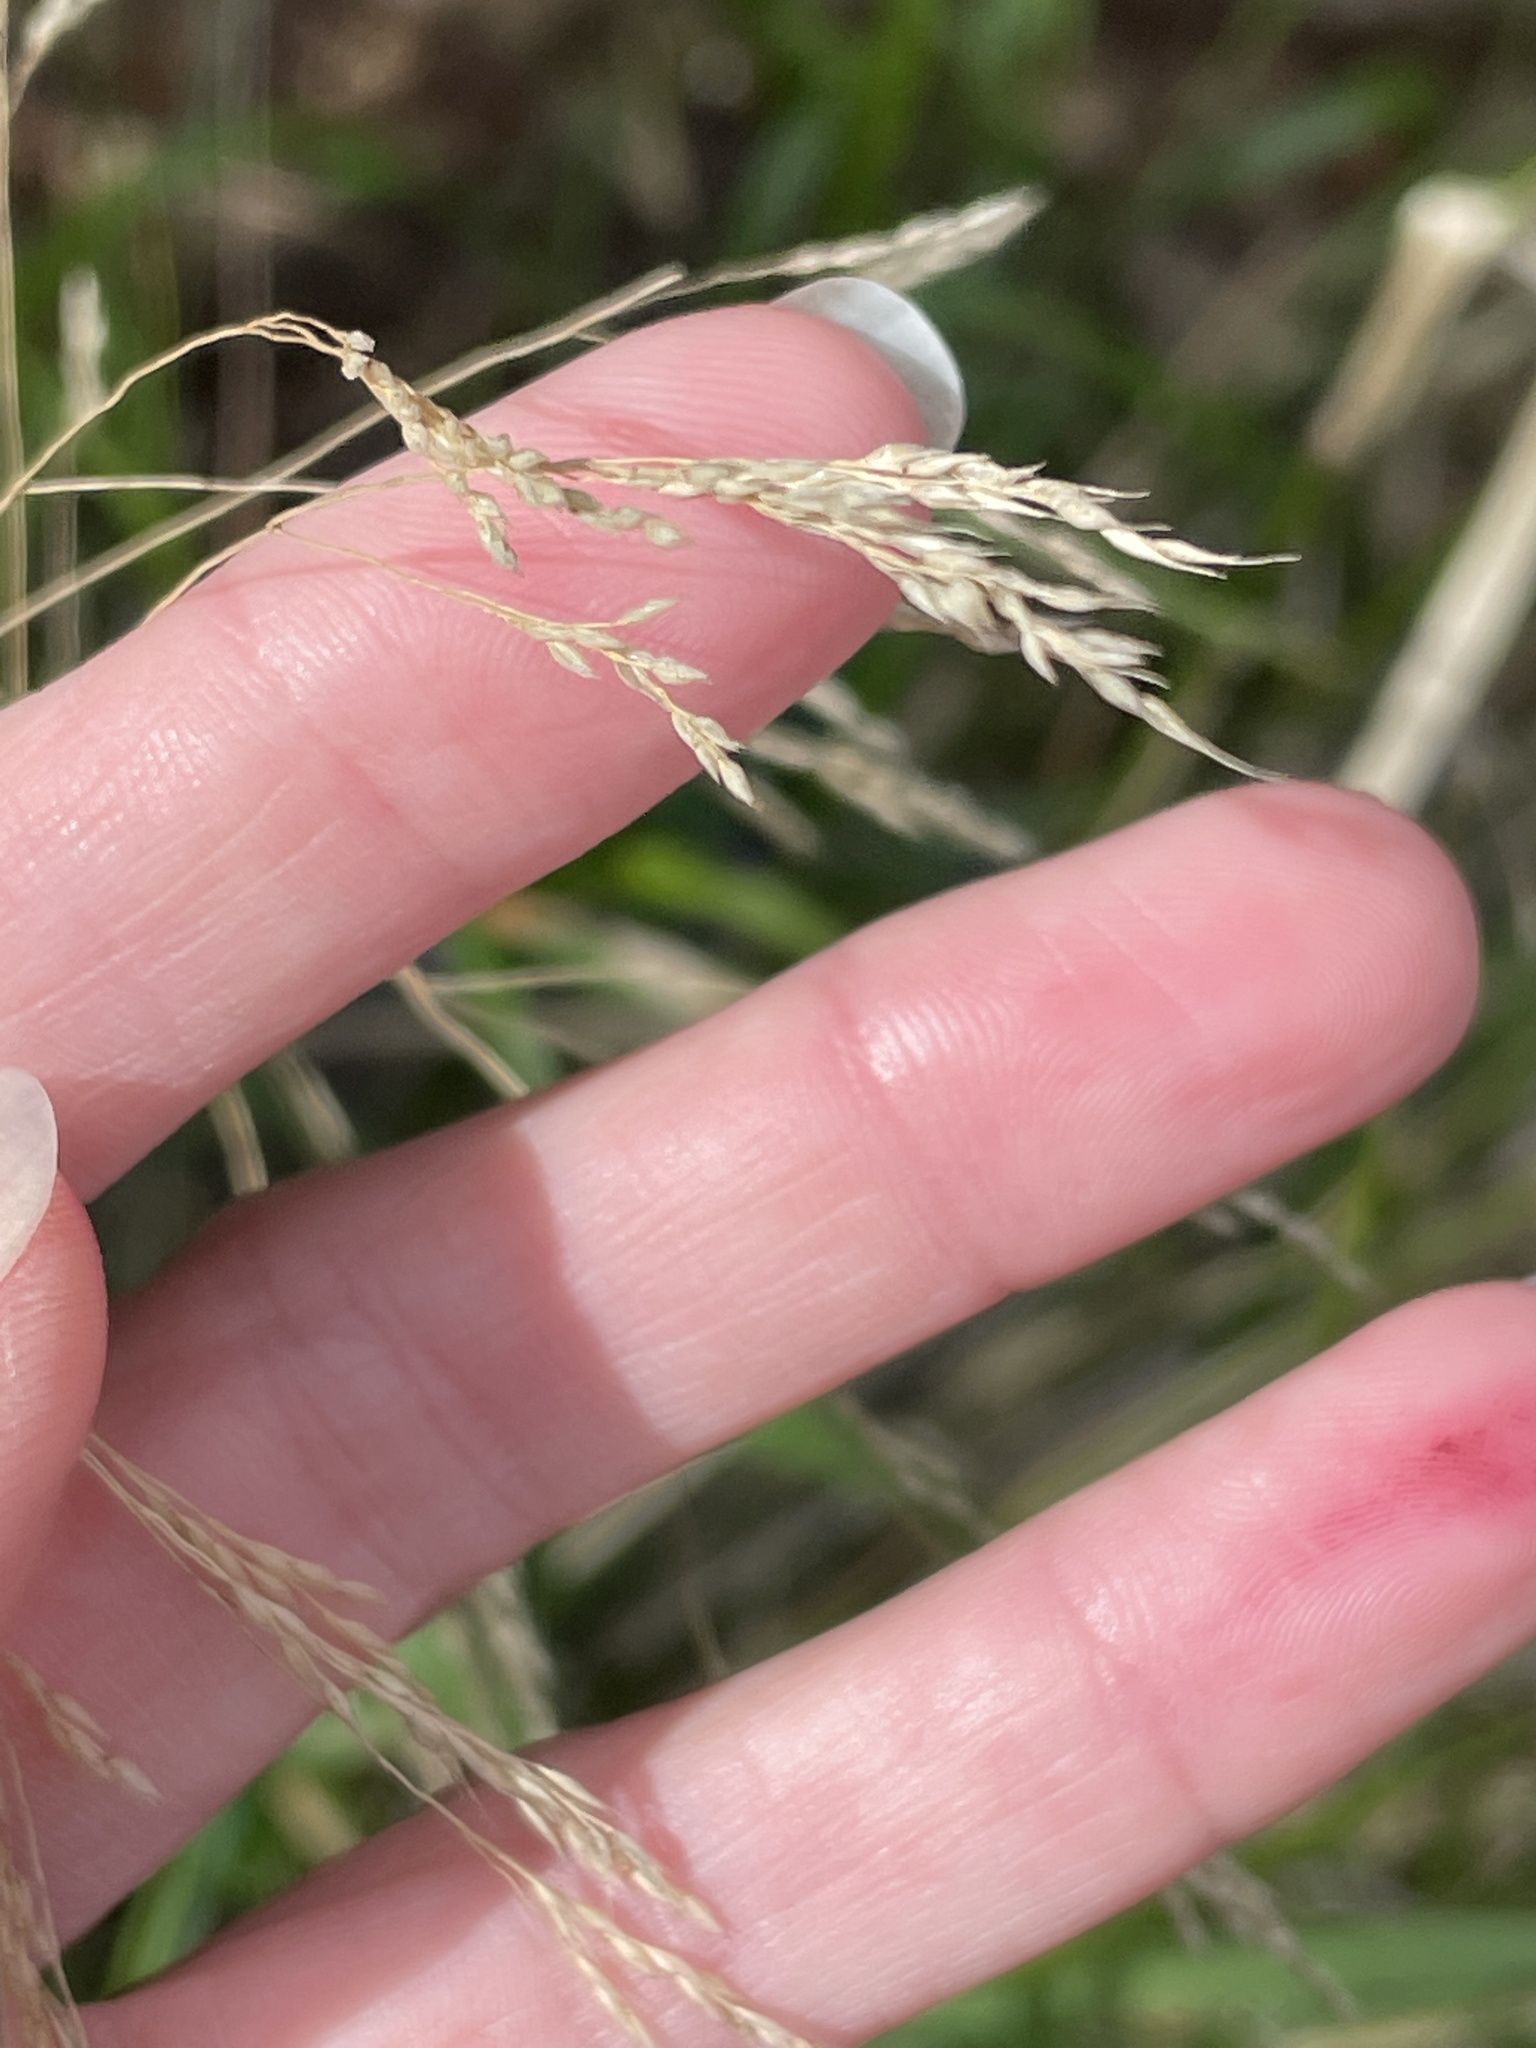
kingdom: Plantae
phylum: Tracheophyta
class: Liliopsida
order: Poales
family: Poaceae
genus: Oloptum
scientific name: Oloptum miliaceum
